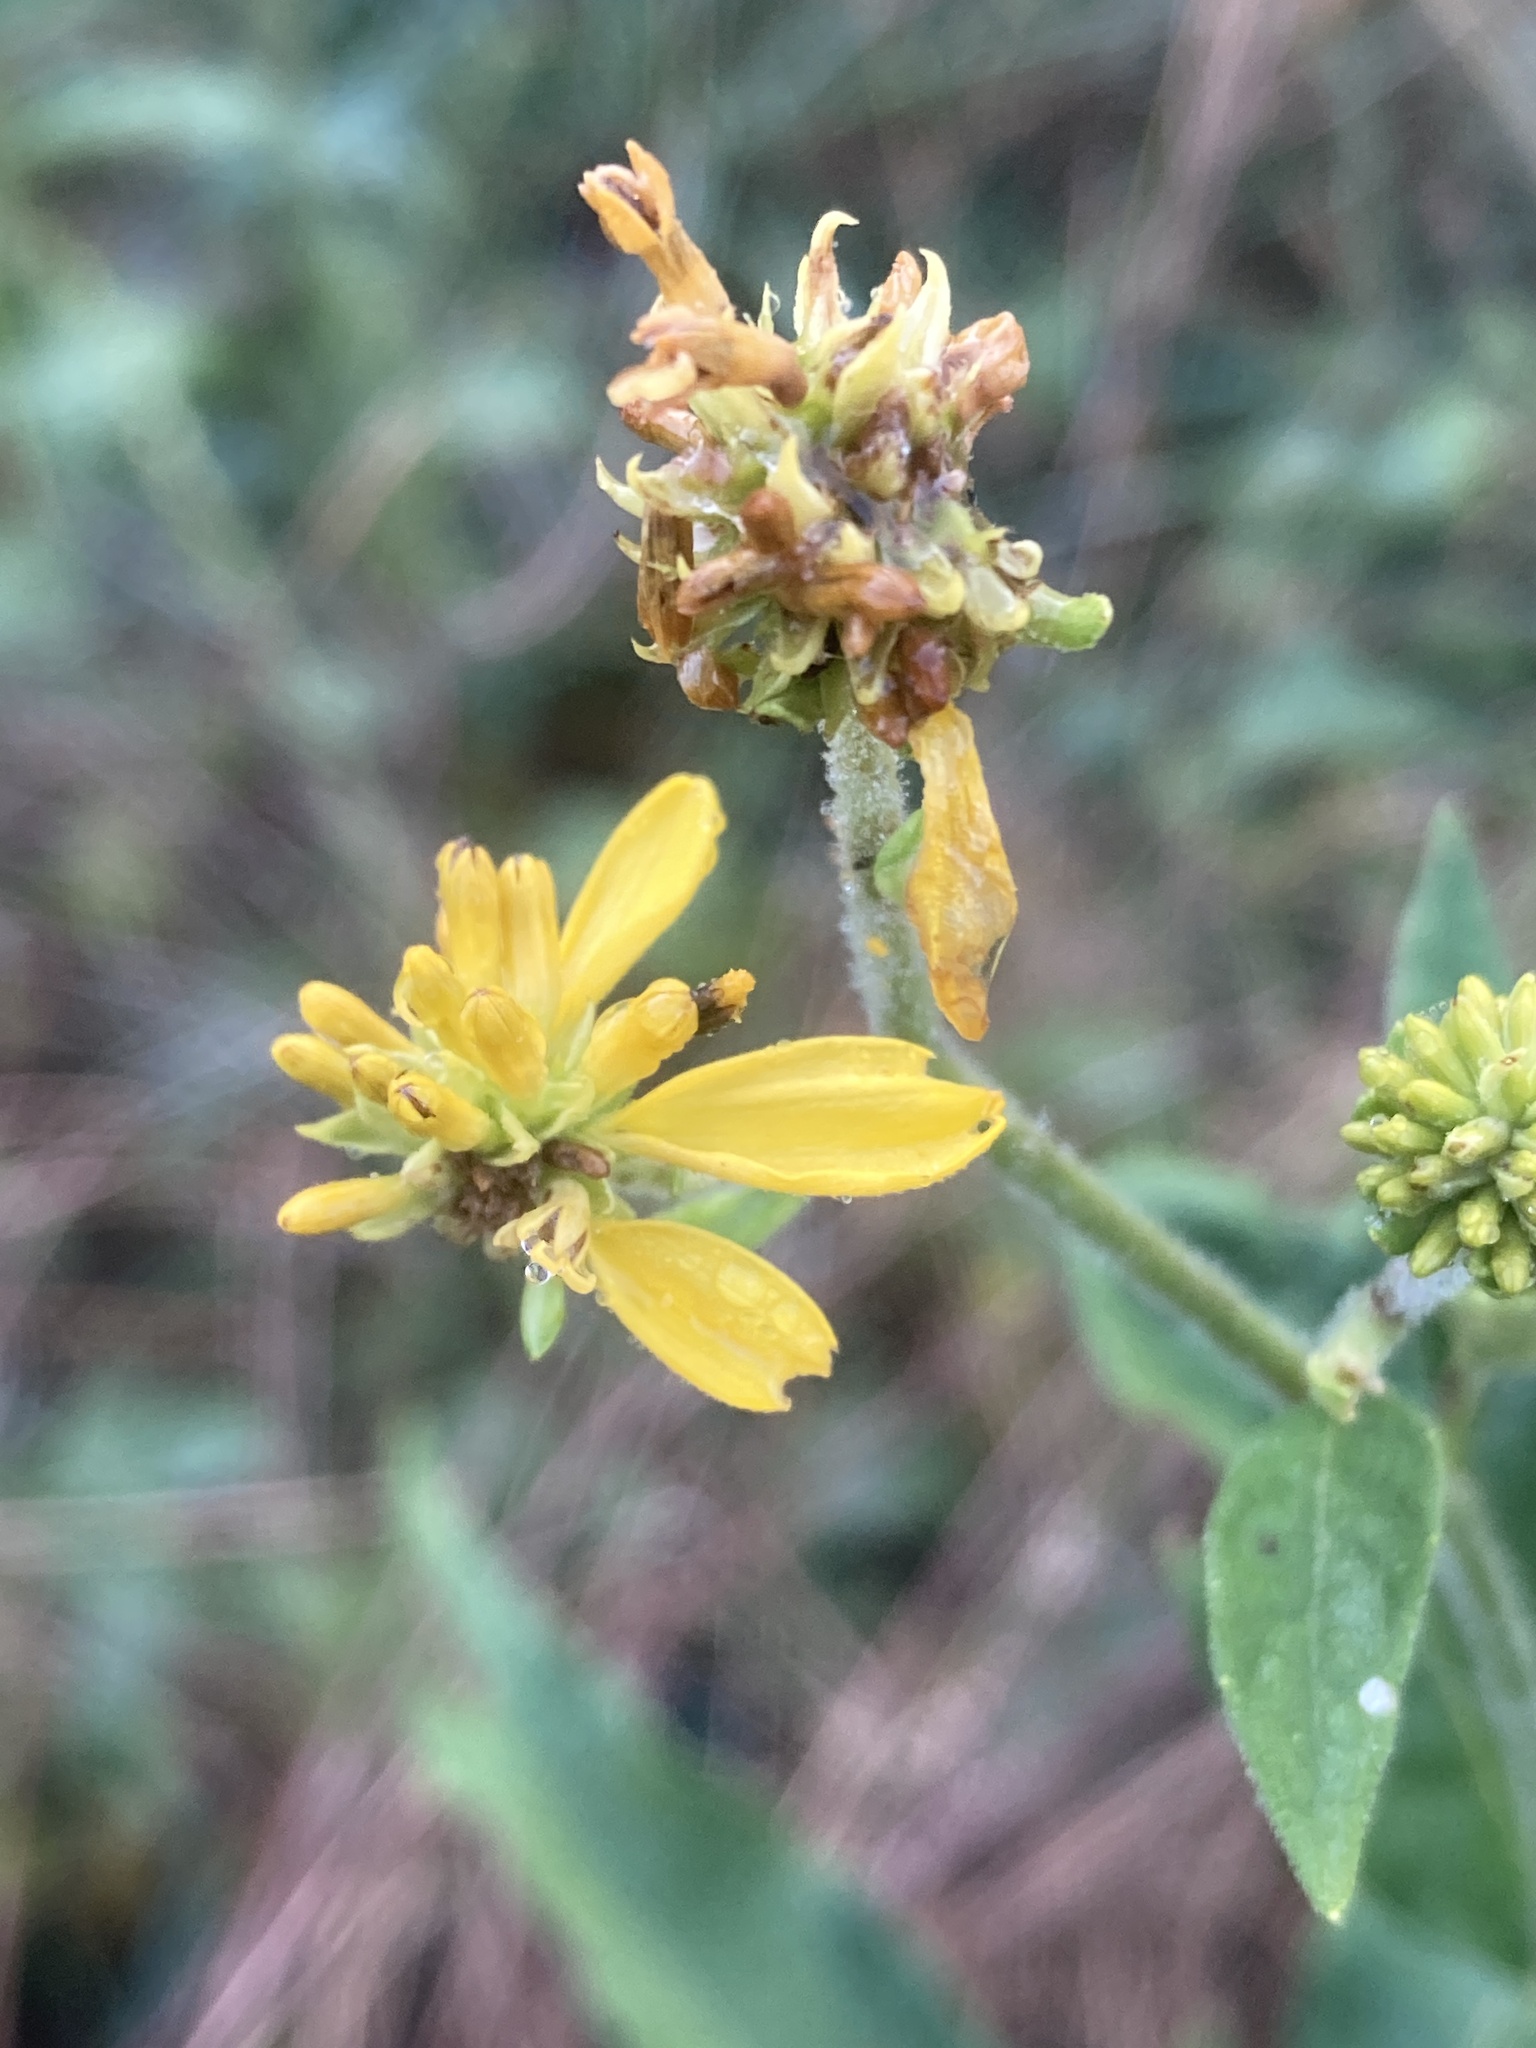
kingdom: Plantae
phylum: Tracheophyta
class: Magnoliopsida
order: Asterales
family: Asteraceae
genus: Verbesina
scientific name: Verbesina alternifolia
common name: Wingstem
